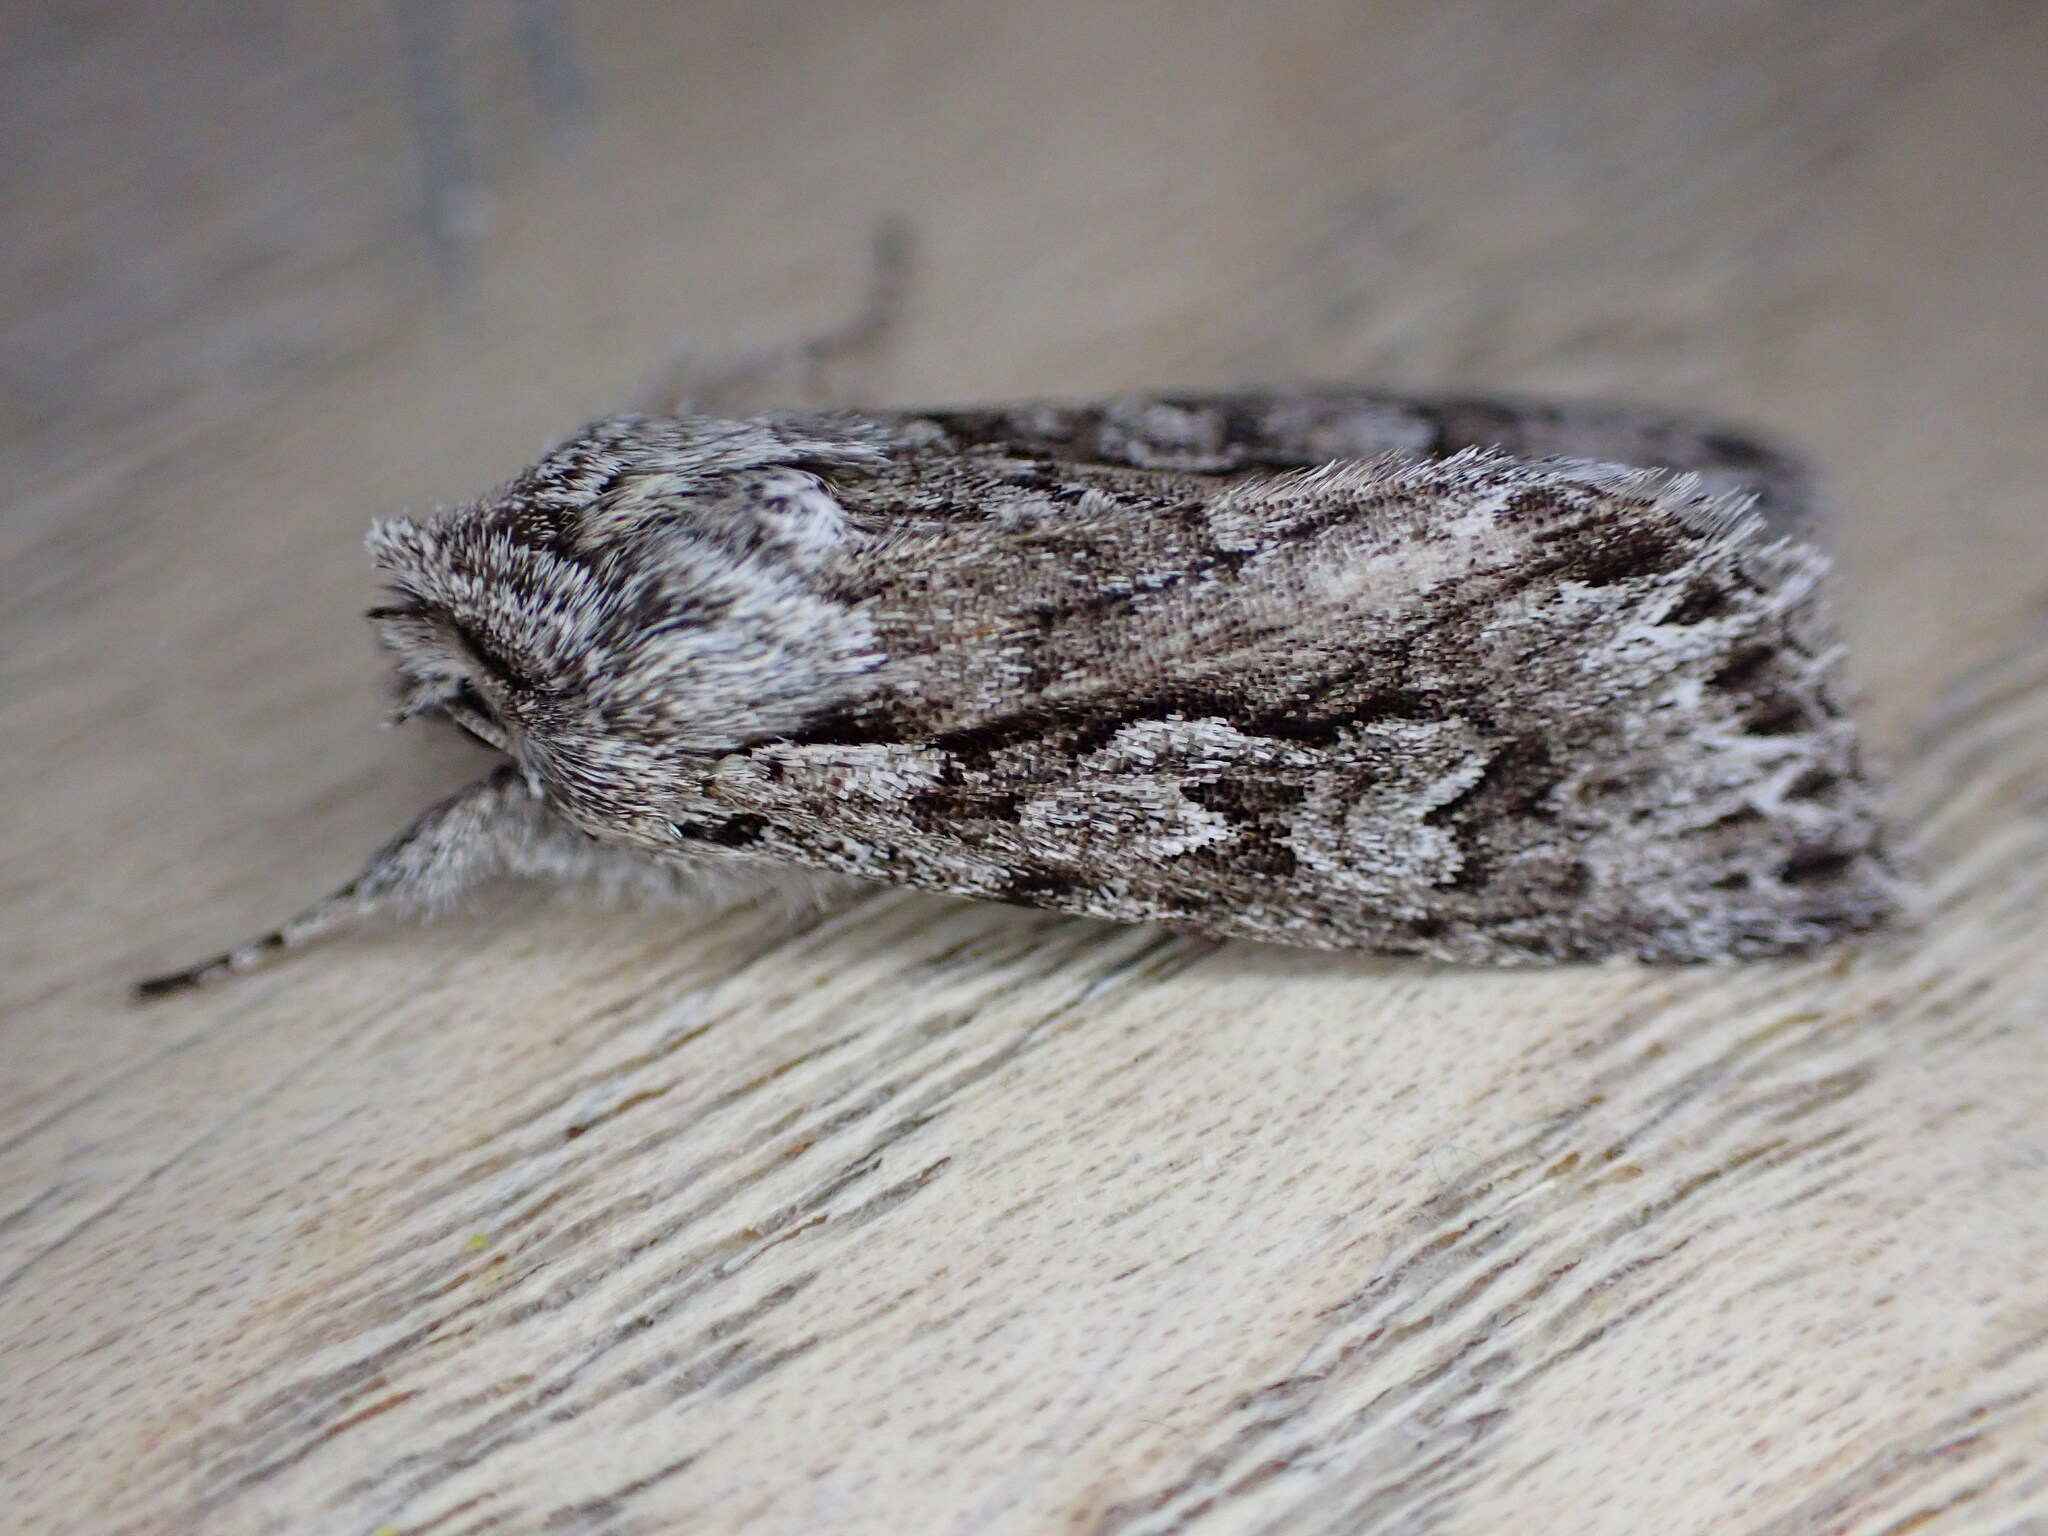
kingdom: Animalia
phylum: Arthropoda
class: Insecta
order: Lepidoptera
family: Noctuidae
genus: Xylocampa
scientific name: Xylocampa areola
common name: Early grey
